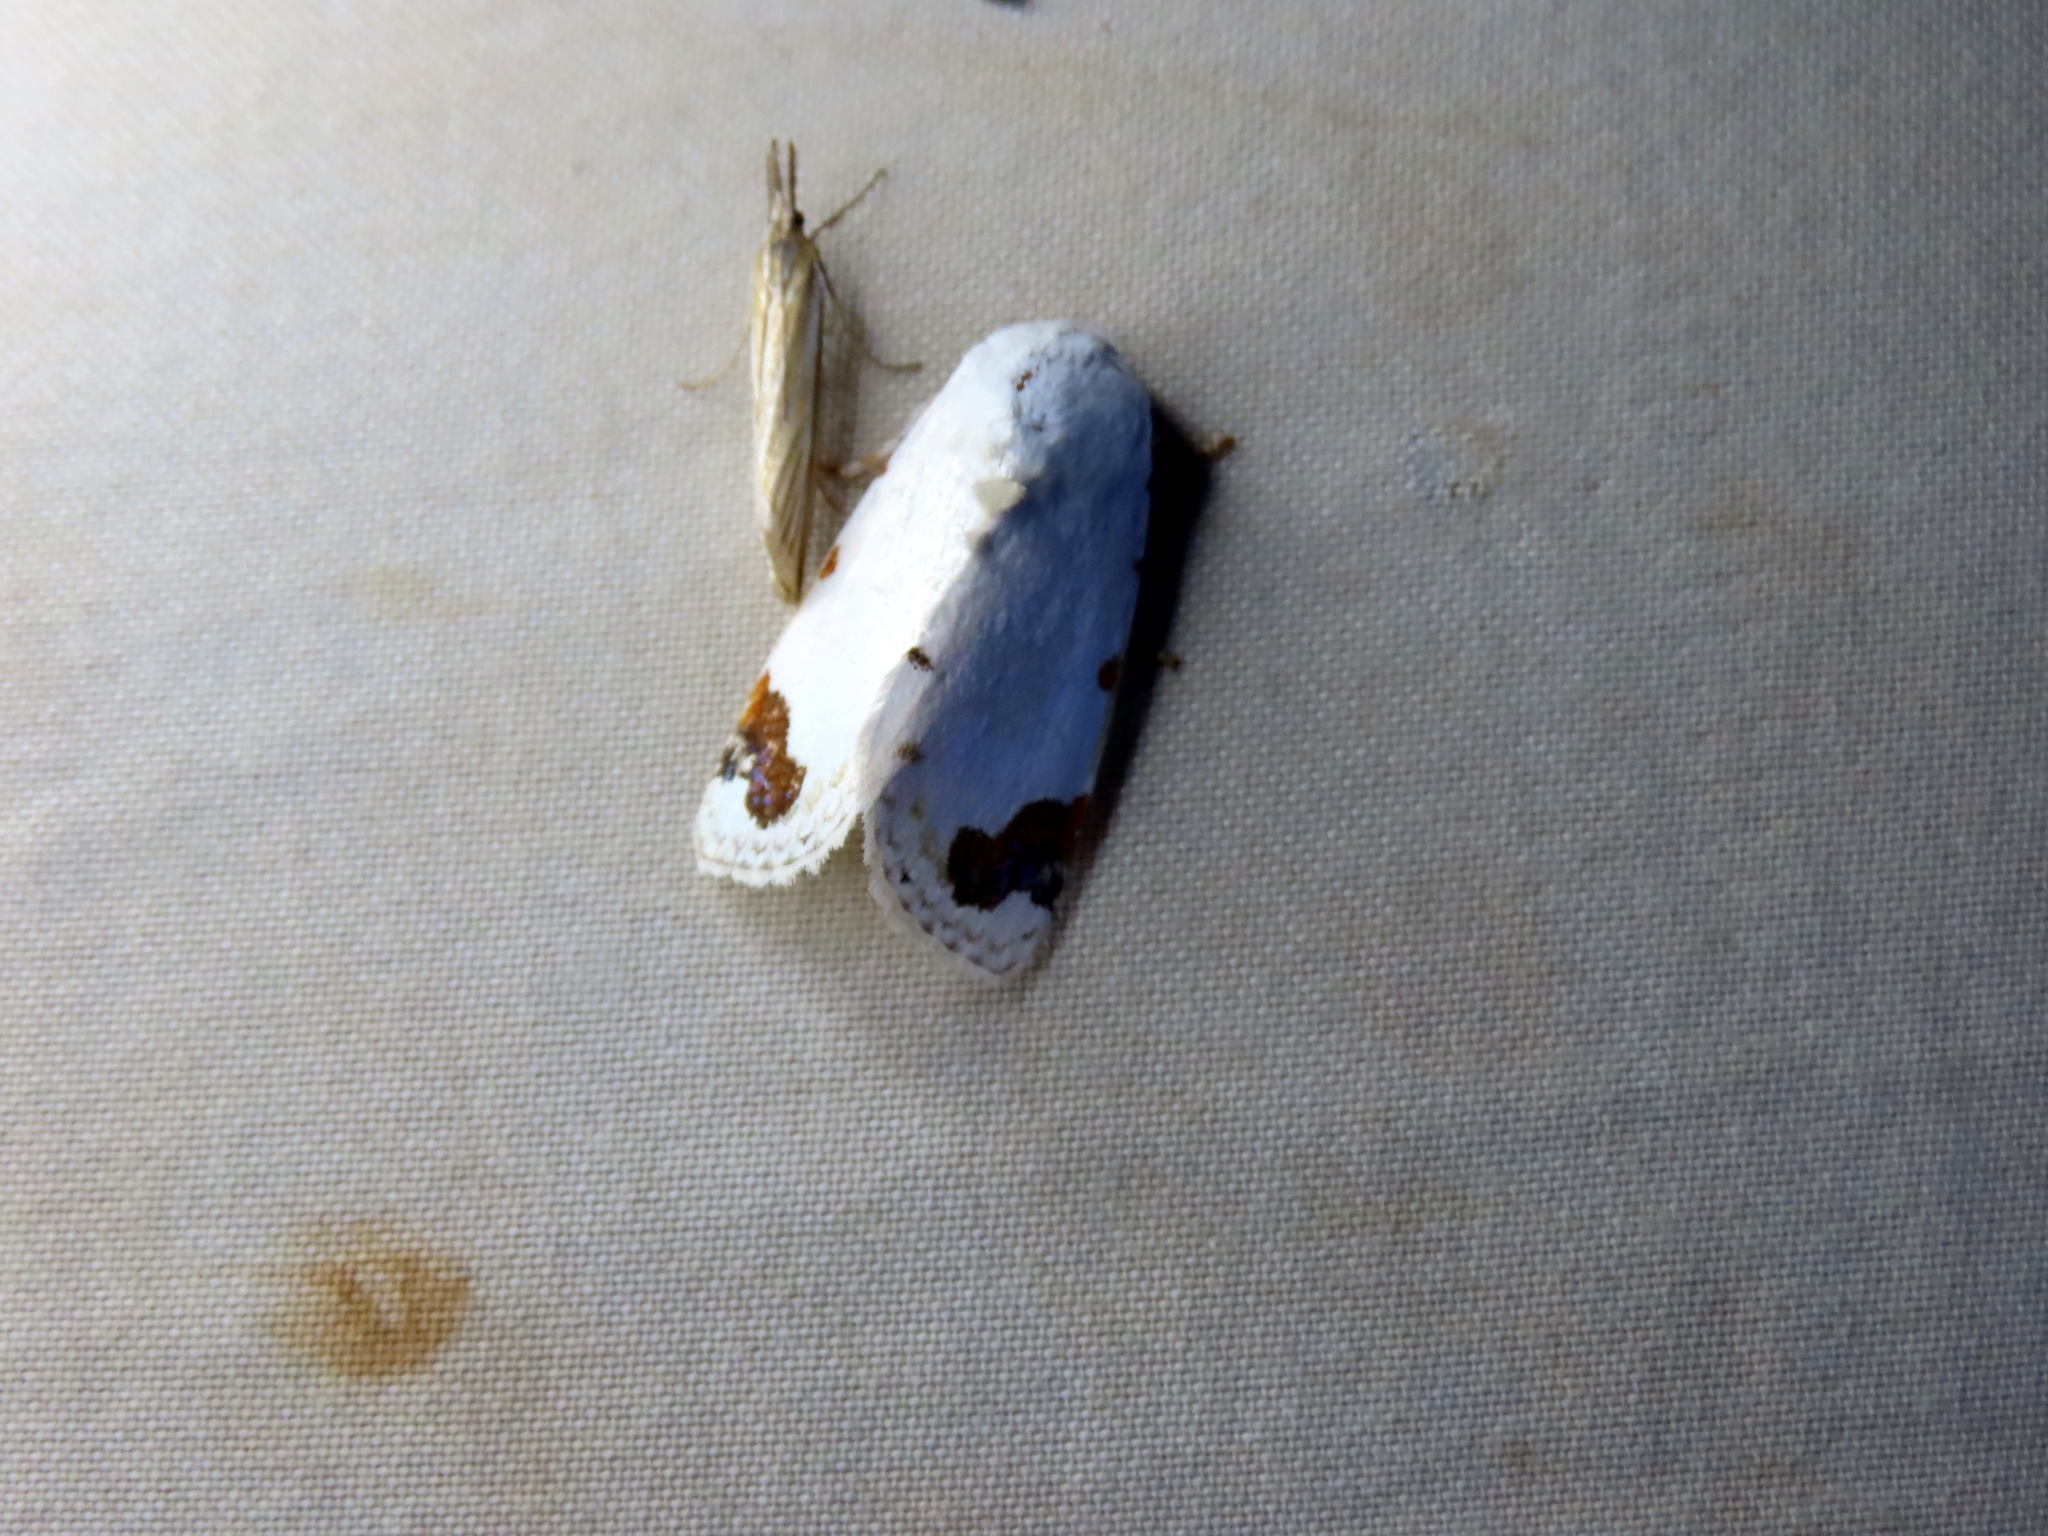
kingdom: Animalia
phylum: Arthropoda
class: Insecta
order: Lepidoptera
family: Noctuidae
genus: Chasmina
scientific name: Chasmina pulchra
